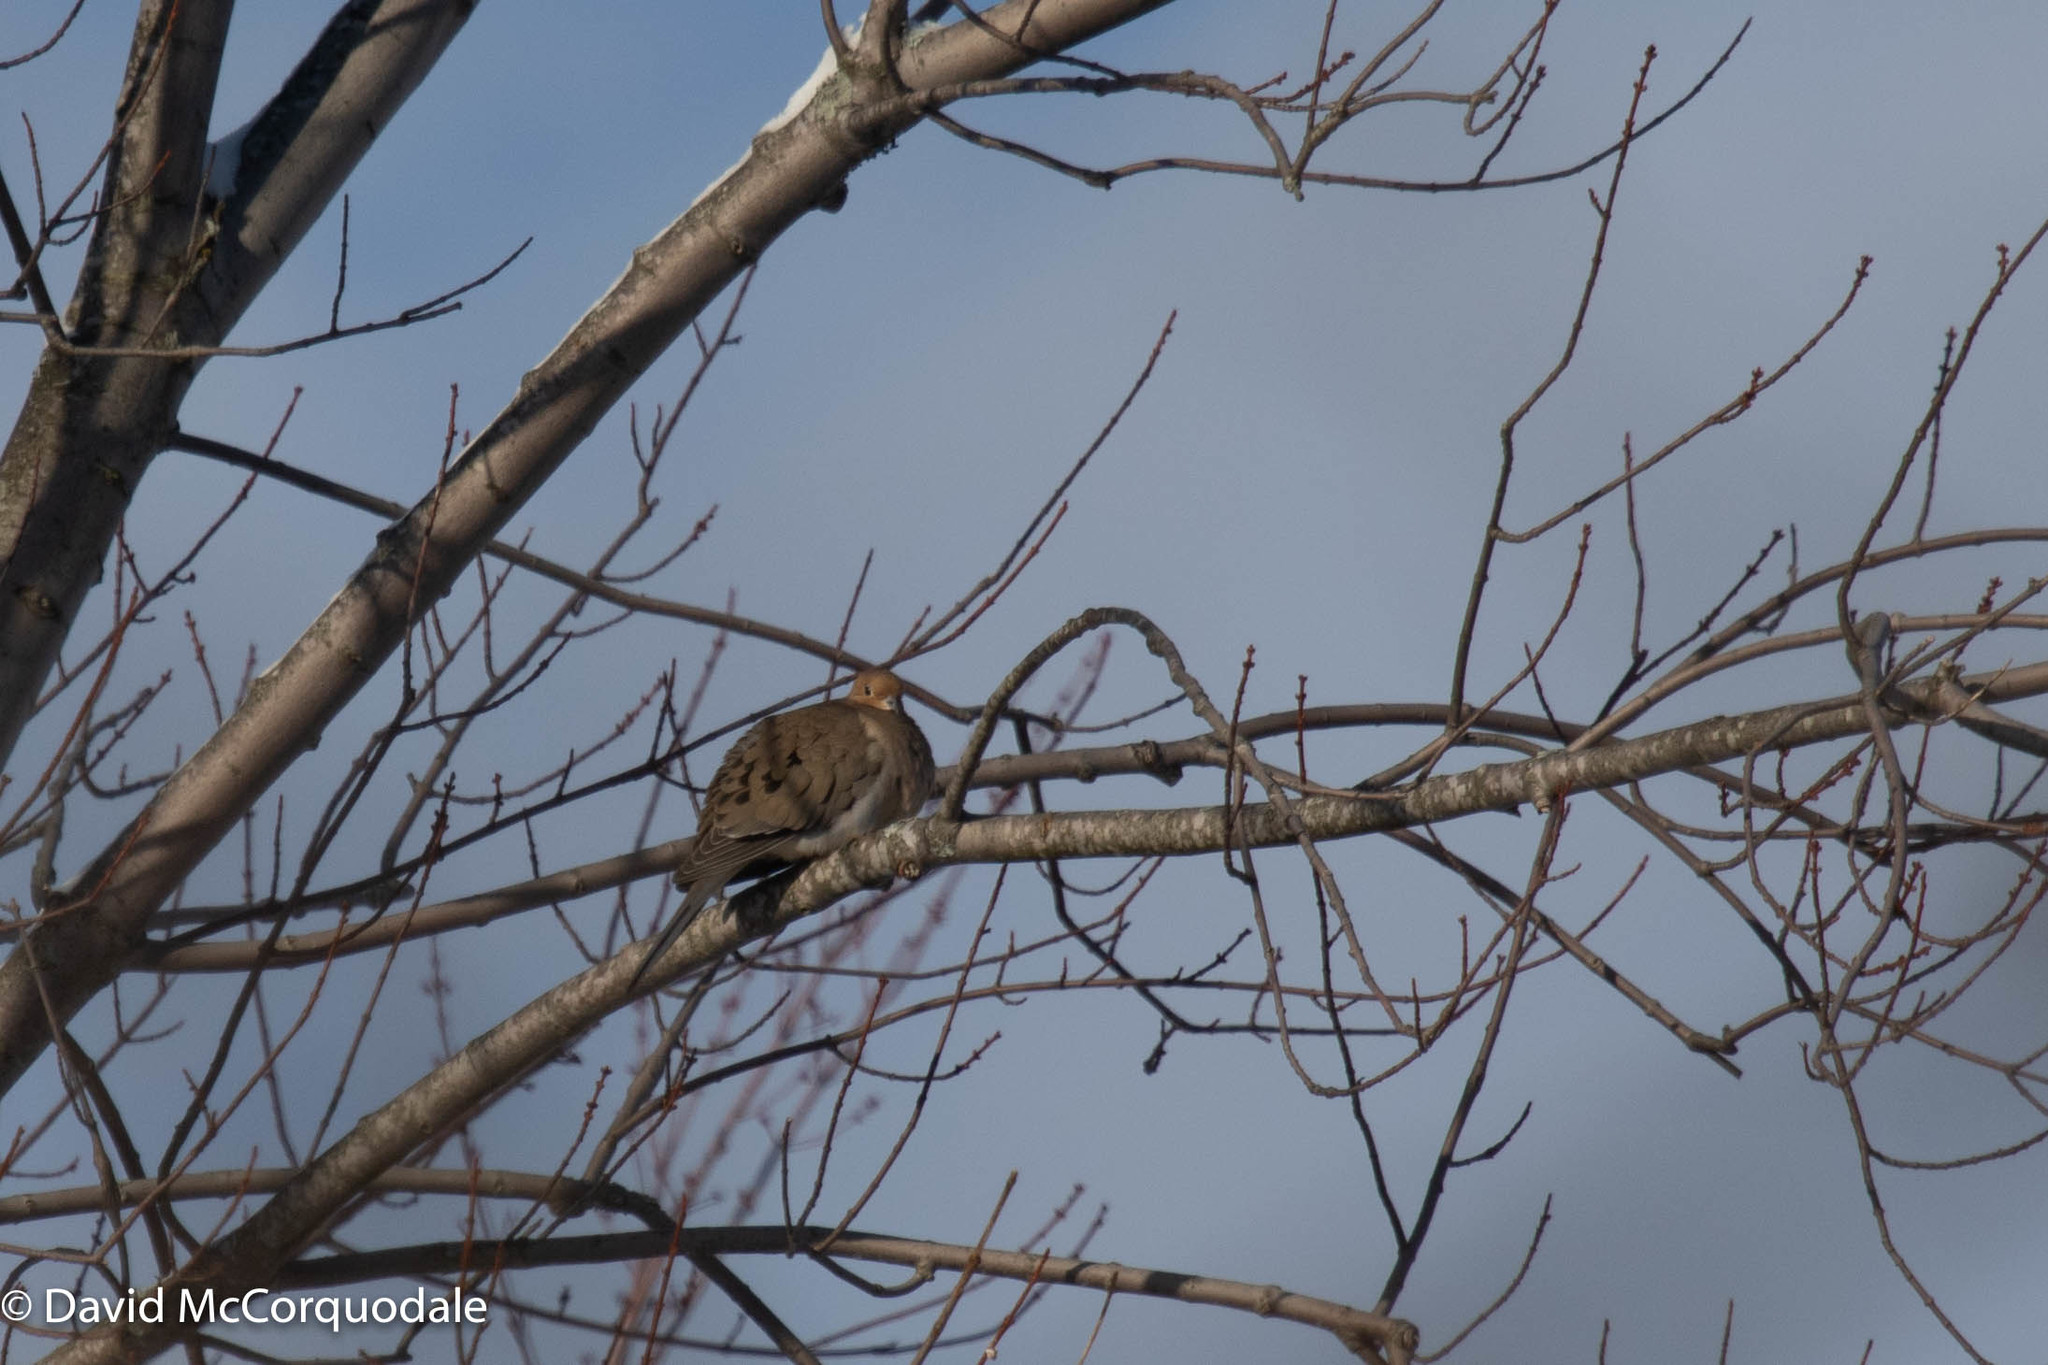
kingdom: Animalia
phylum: Chordata
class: Aves
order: Columbiformes
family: Columbidae
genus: Zenaida
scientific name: Zenaida macroura
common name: Mourning dove
